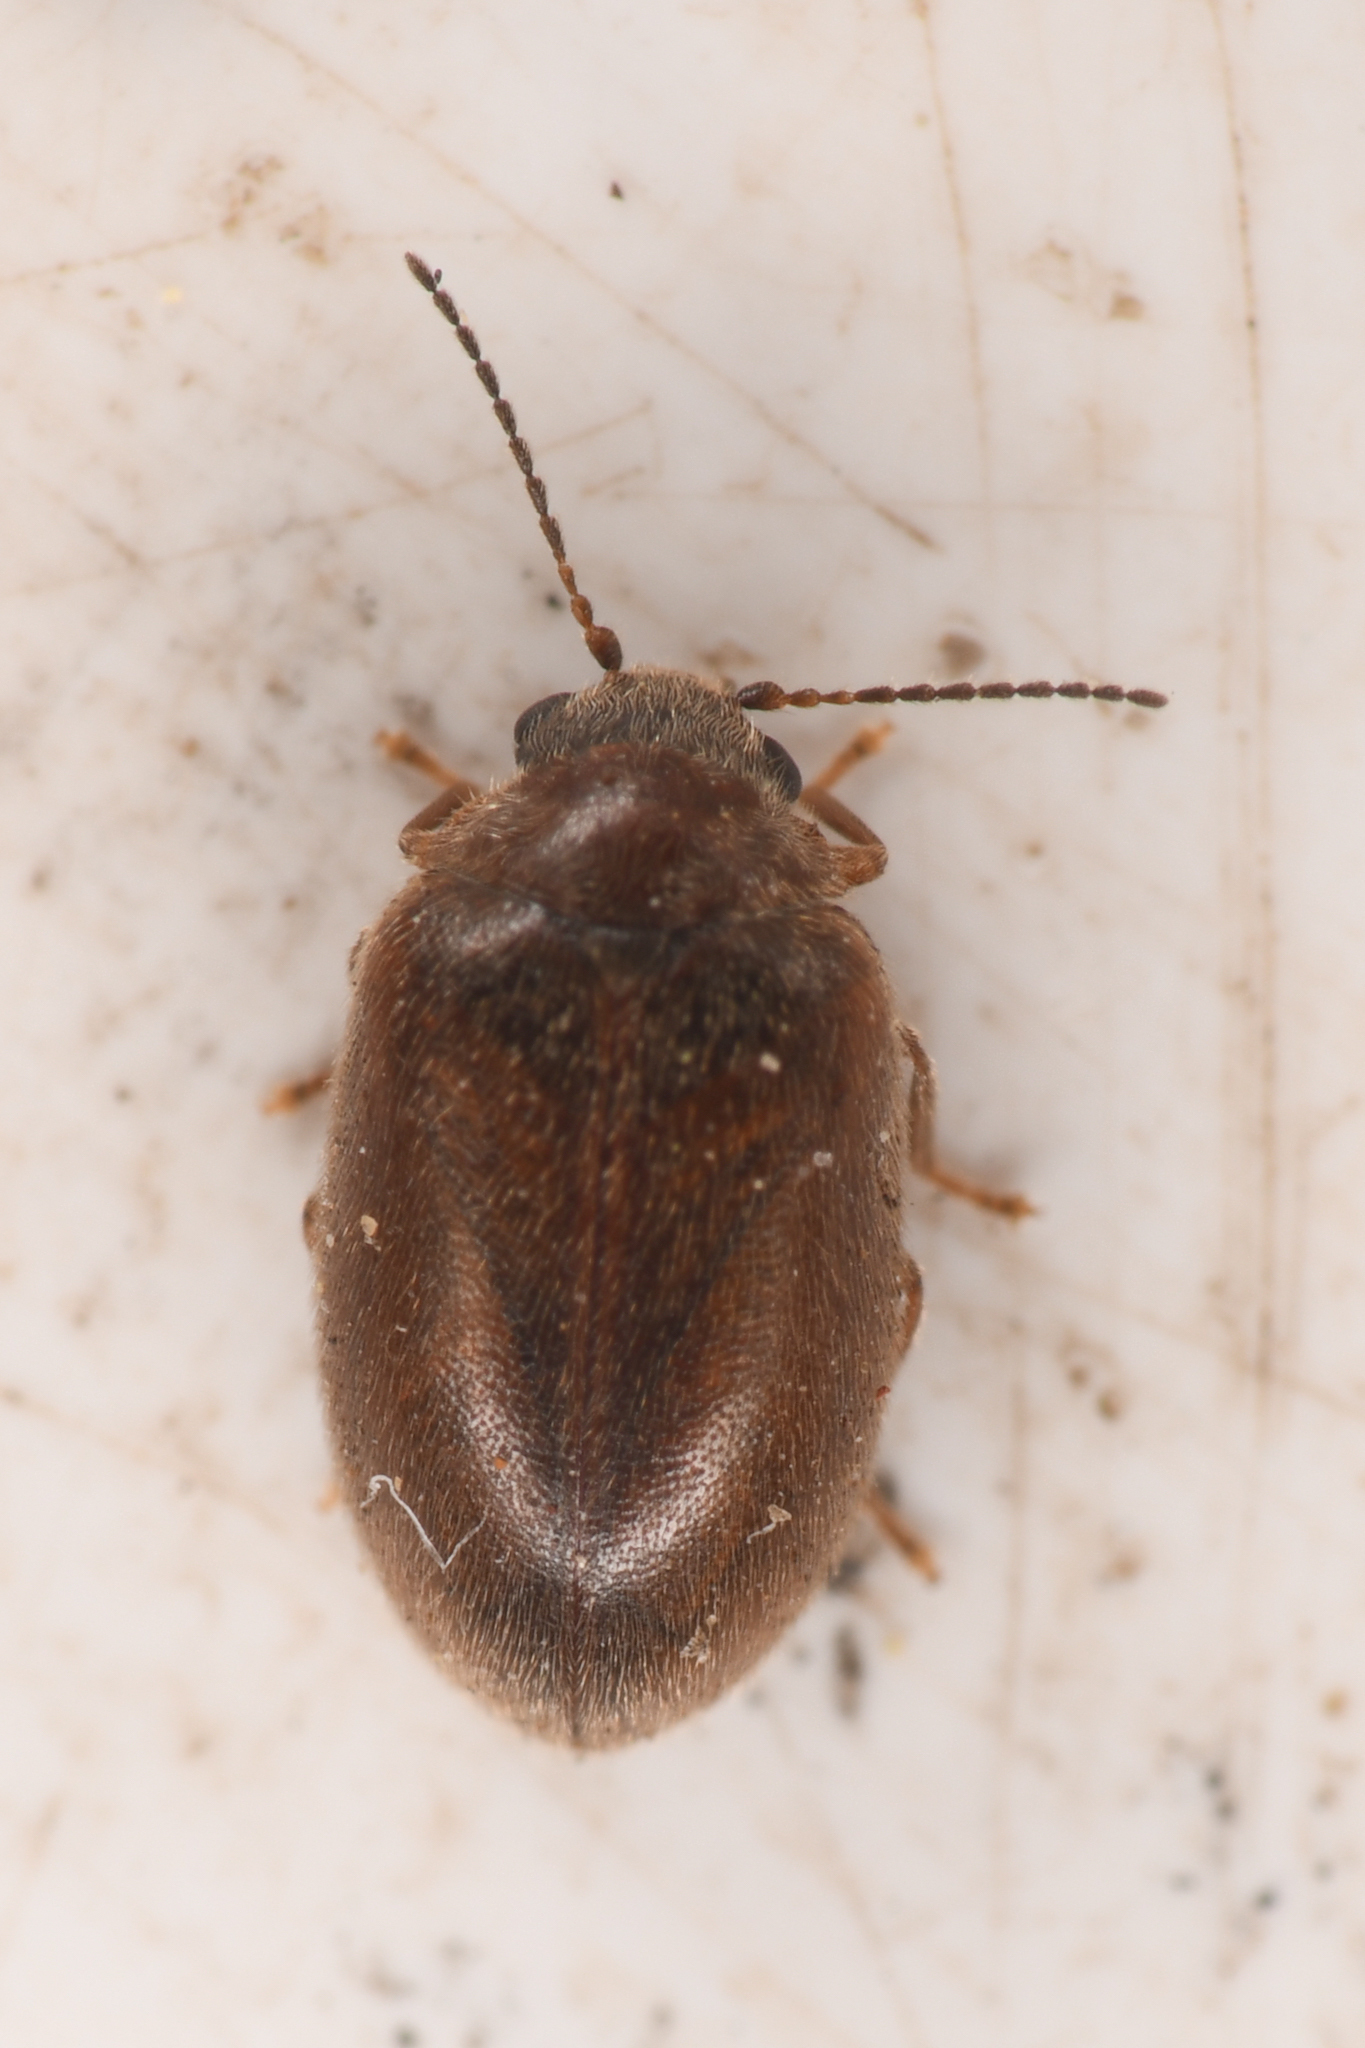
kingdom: Animalia
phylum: Arthropoda
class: Insecta
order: Coleoptera
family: Scirtidae
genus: Contacyphon
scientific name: Contacyphon
